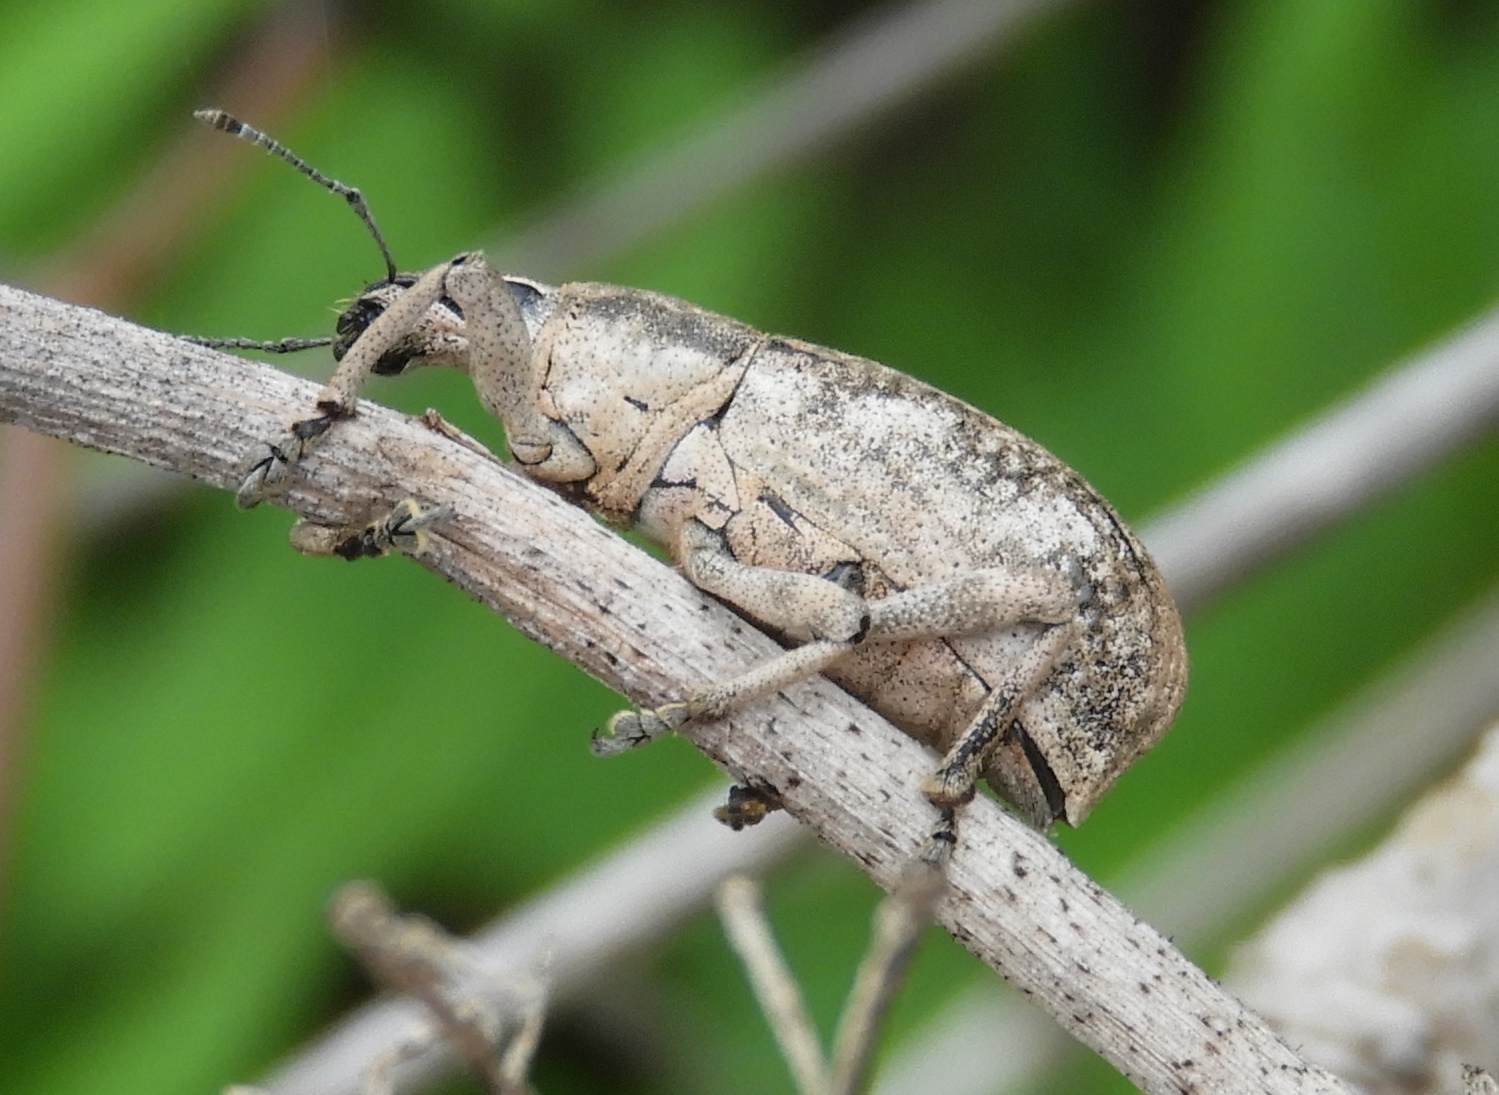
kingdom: Animalia
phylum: Arthropoda
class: Insecta
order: Coleoptera
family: Curculionidae
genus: Epicaerus
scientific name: Epicaerus
